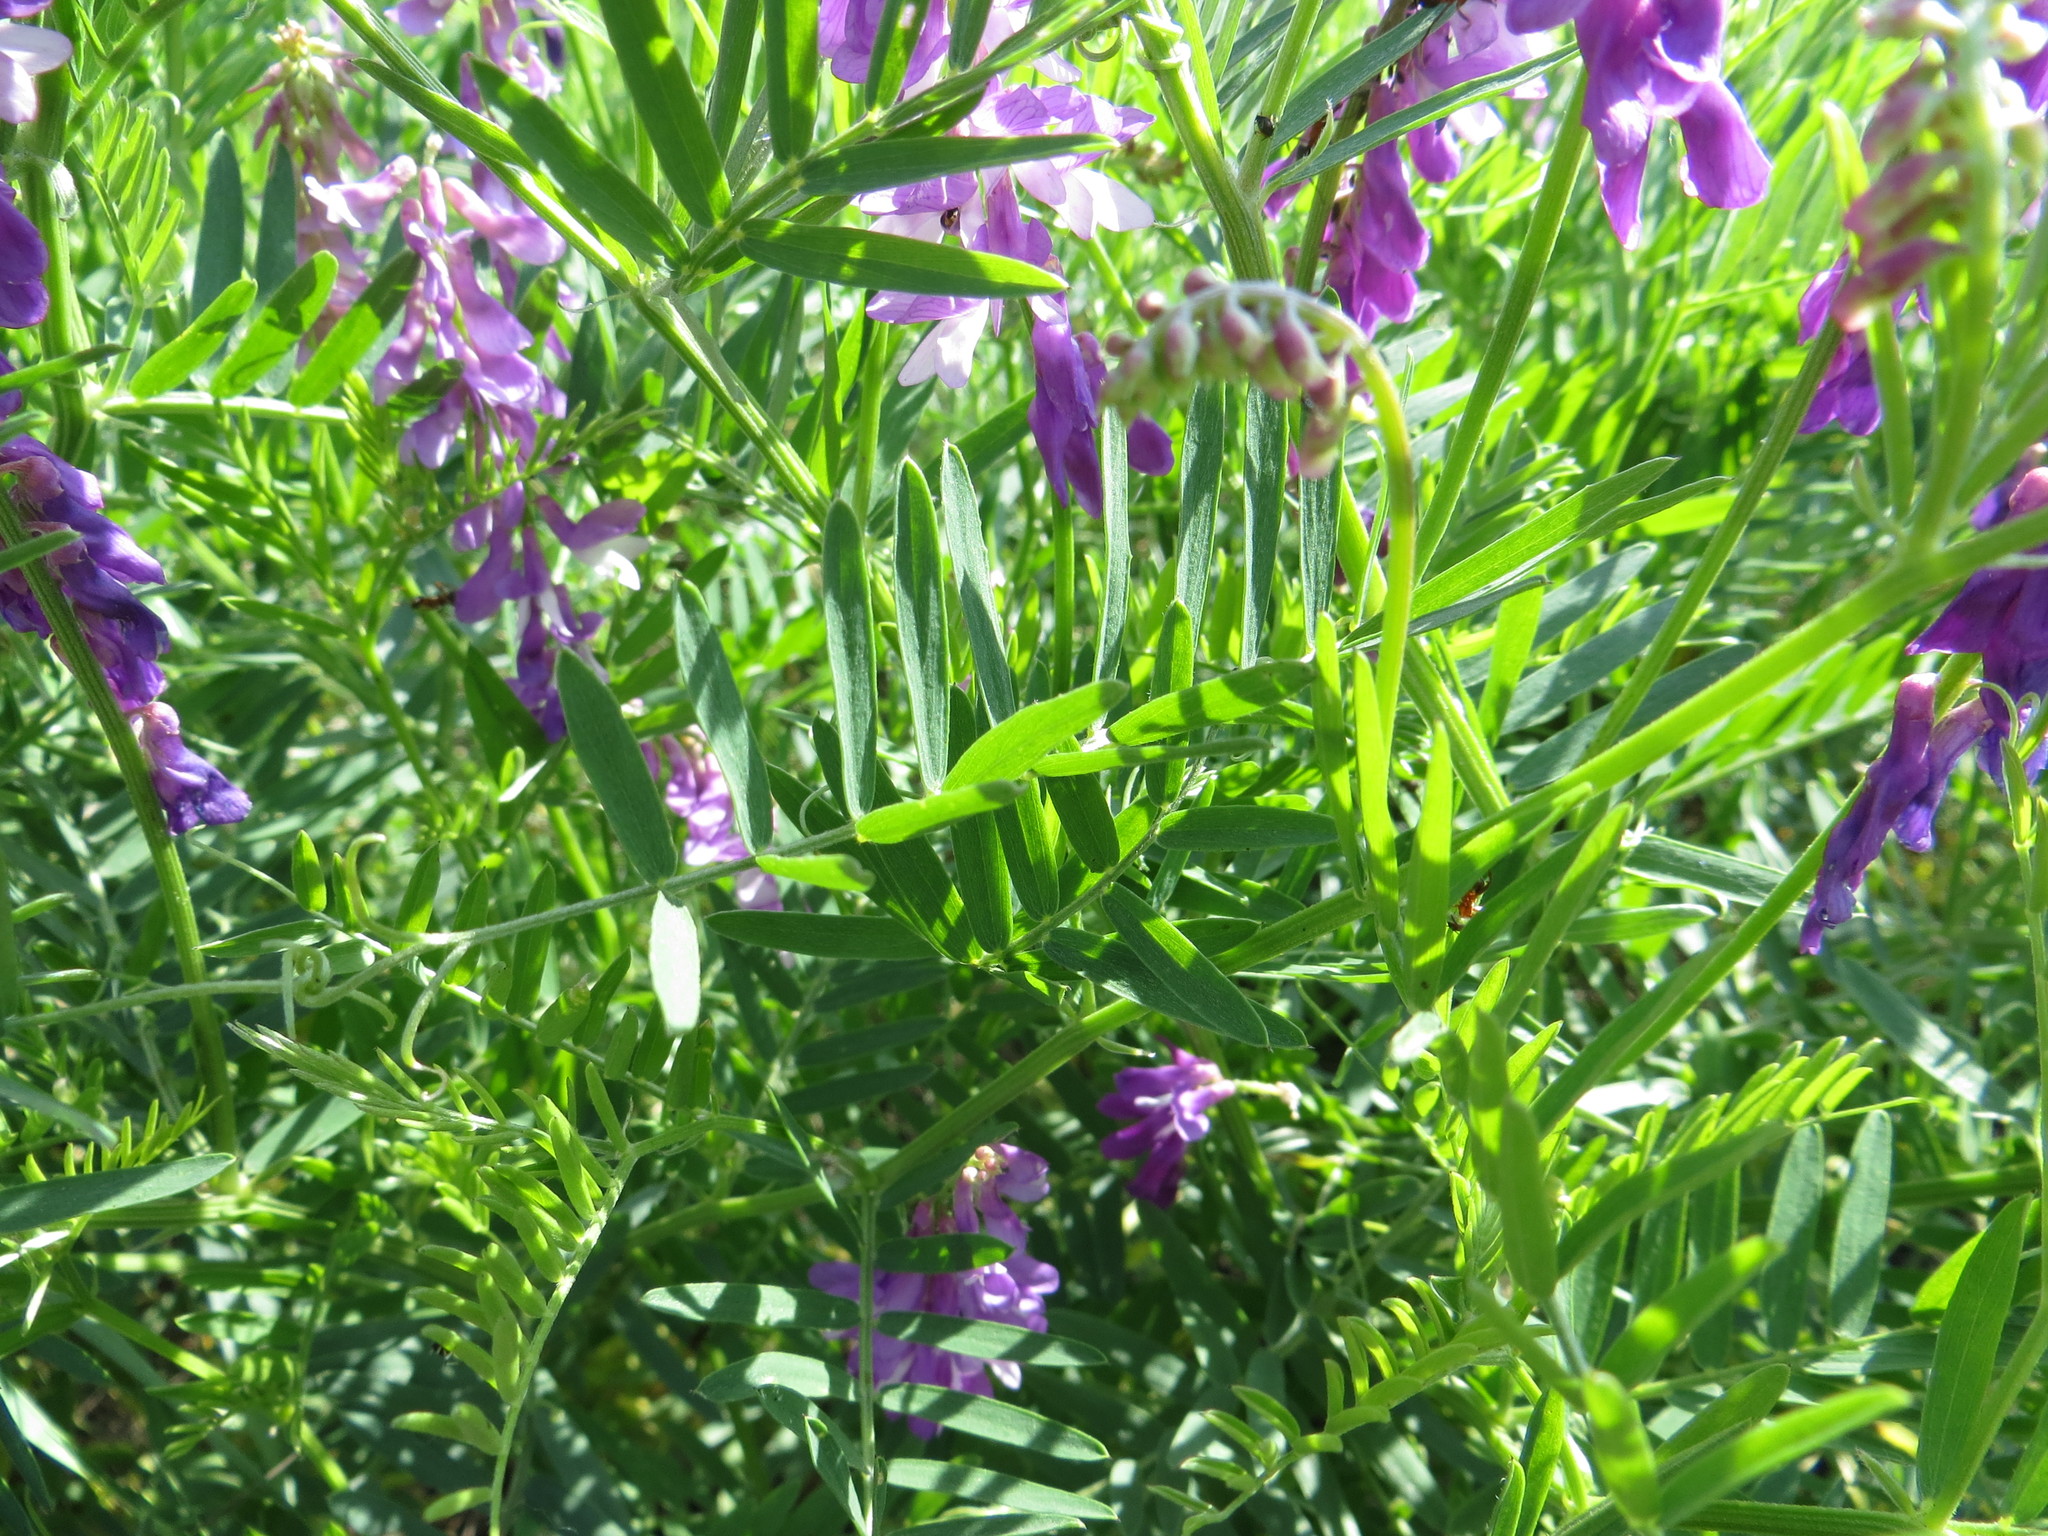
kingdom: Plantae
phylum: Tracheophyta
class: Magnoliopsida
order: Fabales
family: Fabaceae
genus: Vicia
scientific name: Vicia tenuifolia
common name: Fine-leaved vetch
